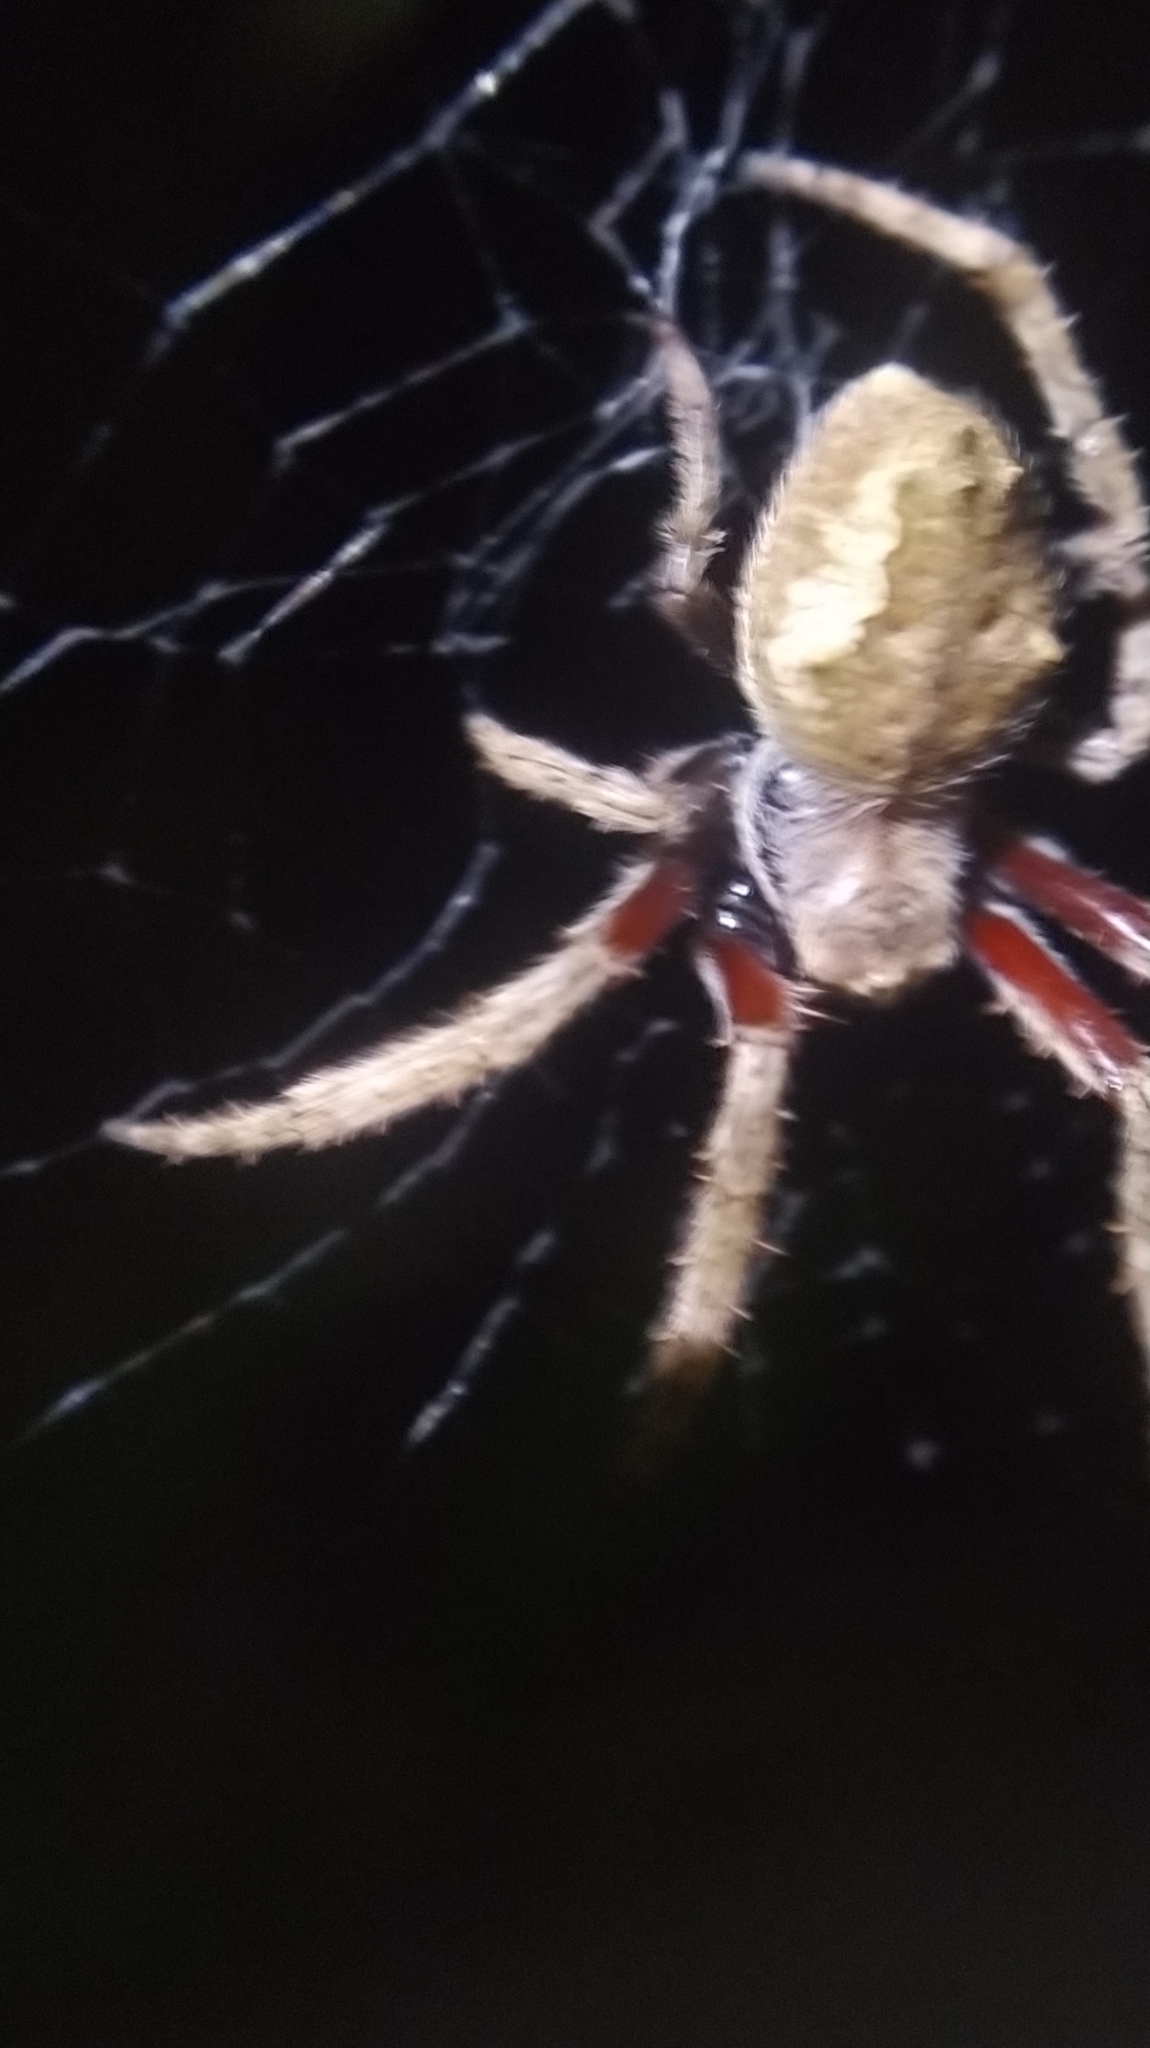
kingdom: Animalia
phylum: Arthropoda
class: Arachnida
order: Araneae
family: Araneidae
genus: Eriophora
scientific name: Eriophora pustulosa
